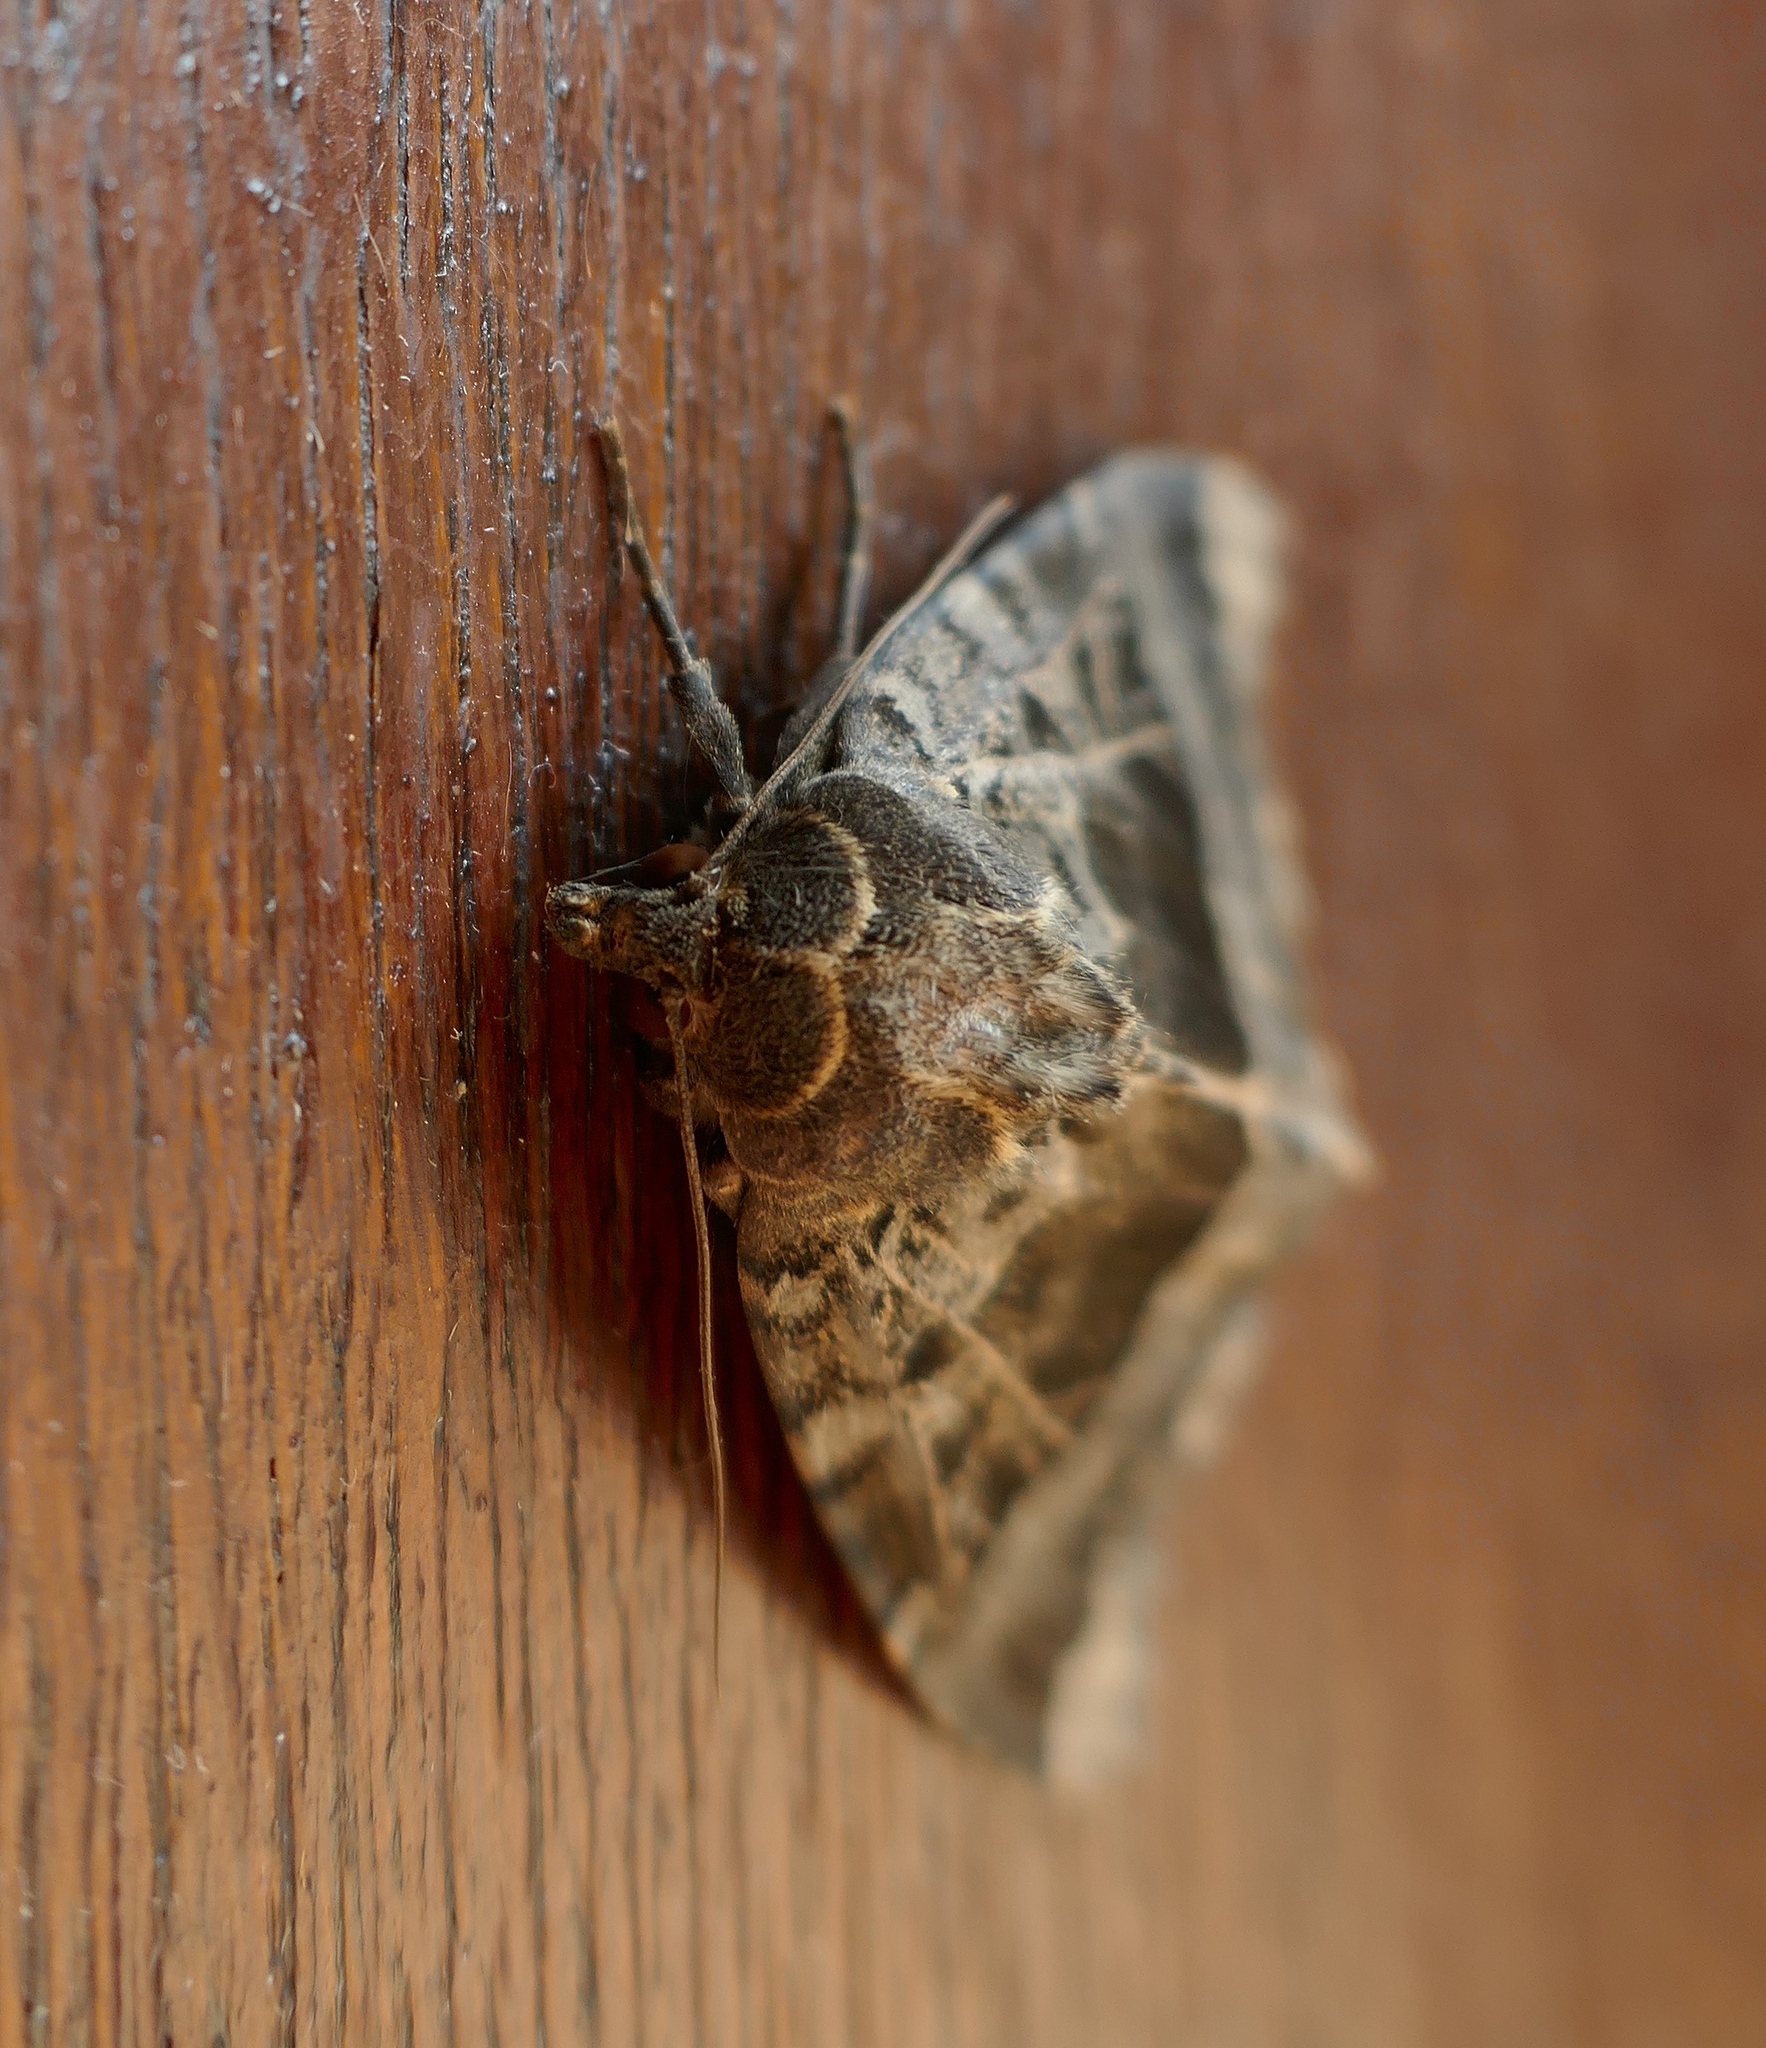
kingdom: Animalia
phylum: Arthropoda
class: Insecta
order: Lepidoptera
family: Noctuidae
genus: Mormo
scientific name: Mormo maura
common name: Old lady
